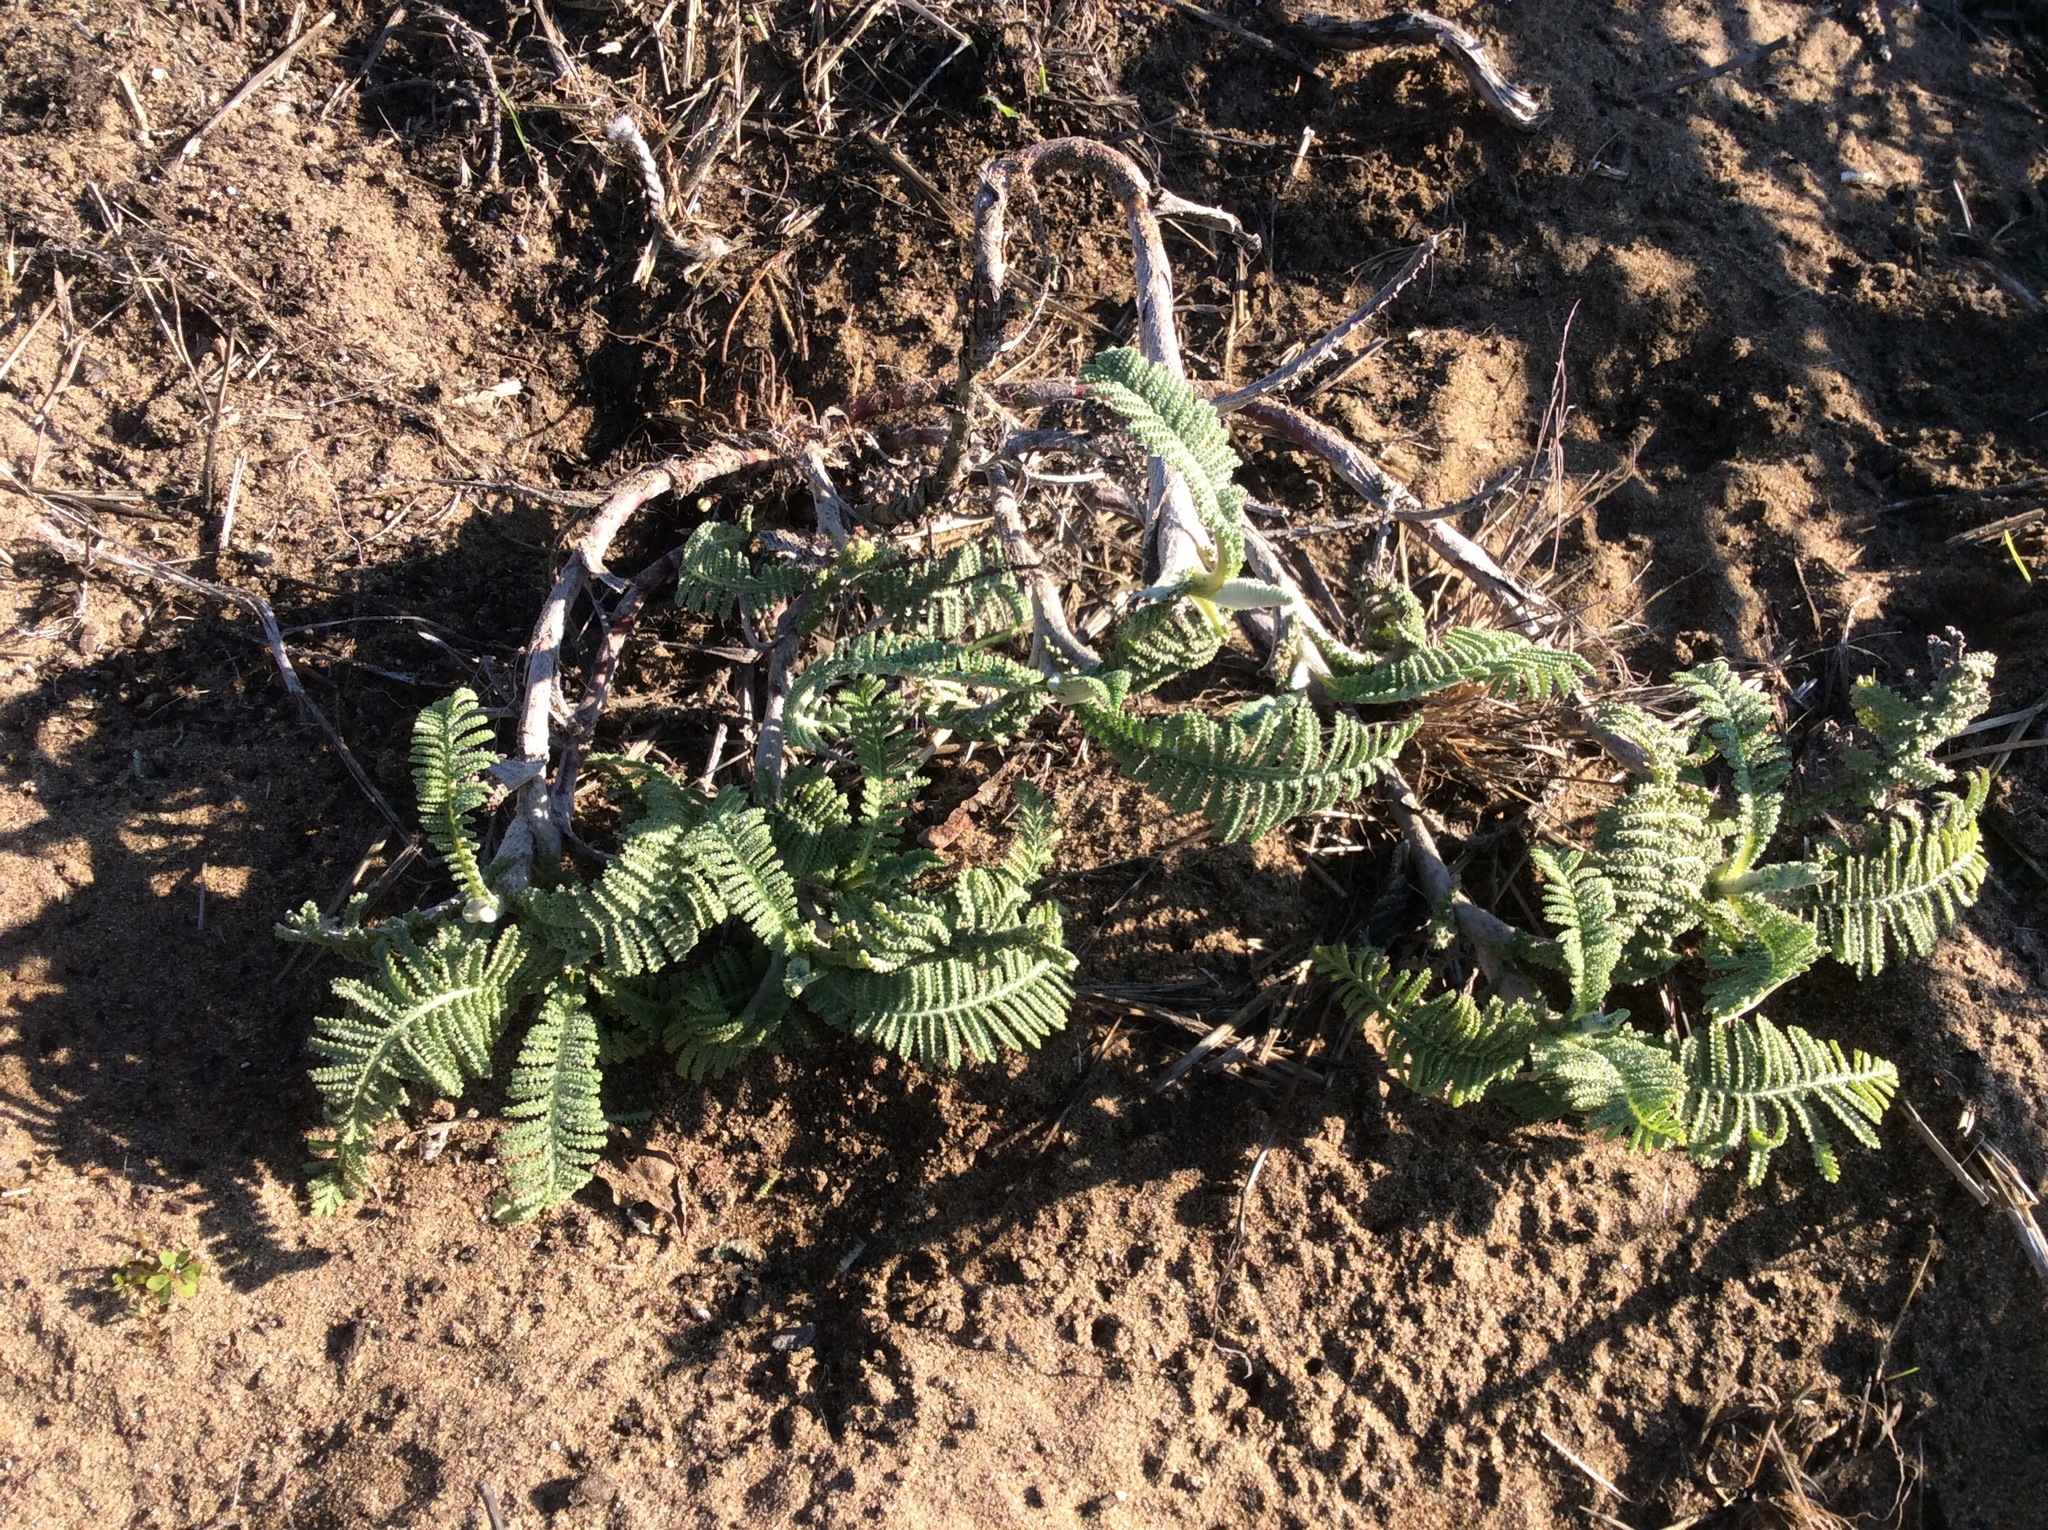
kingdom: Plantae
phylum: Tracheophyta
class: Magnoliopsida
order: Asterales
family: Asteraceae
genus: Tanacetum
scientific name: Tanacetum bipinnatum
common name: Dwarf tansy
